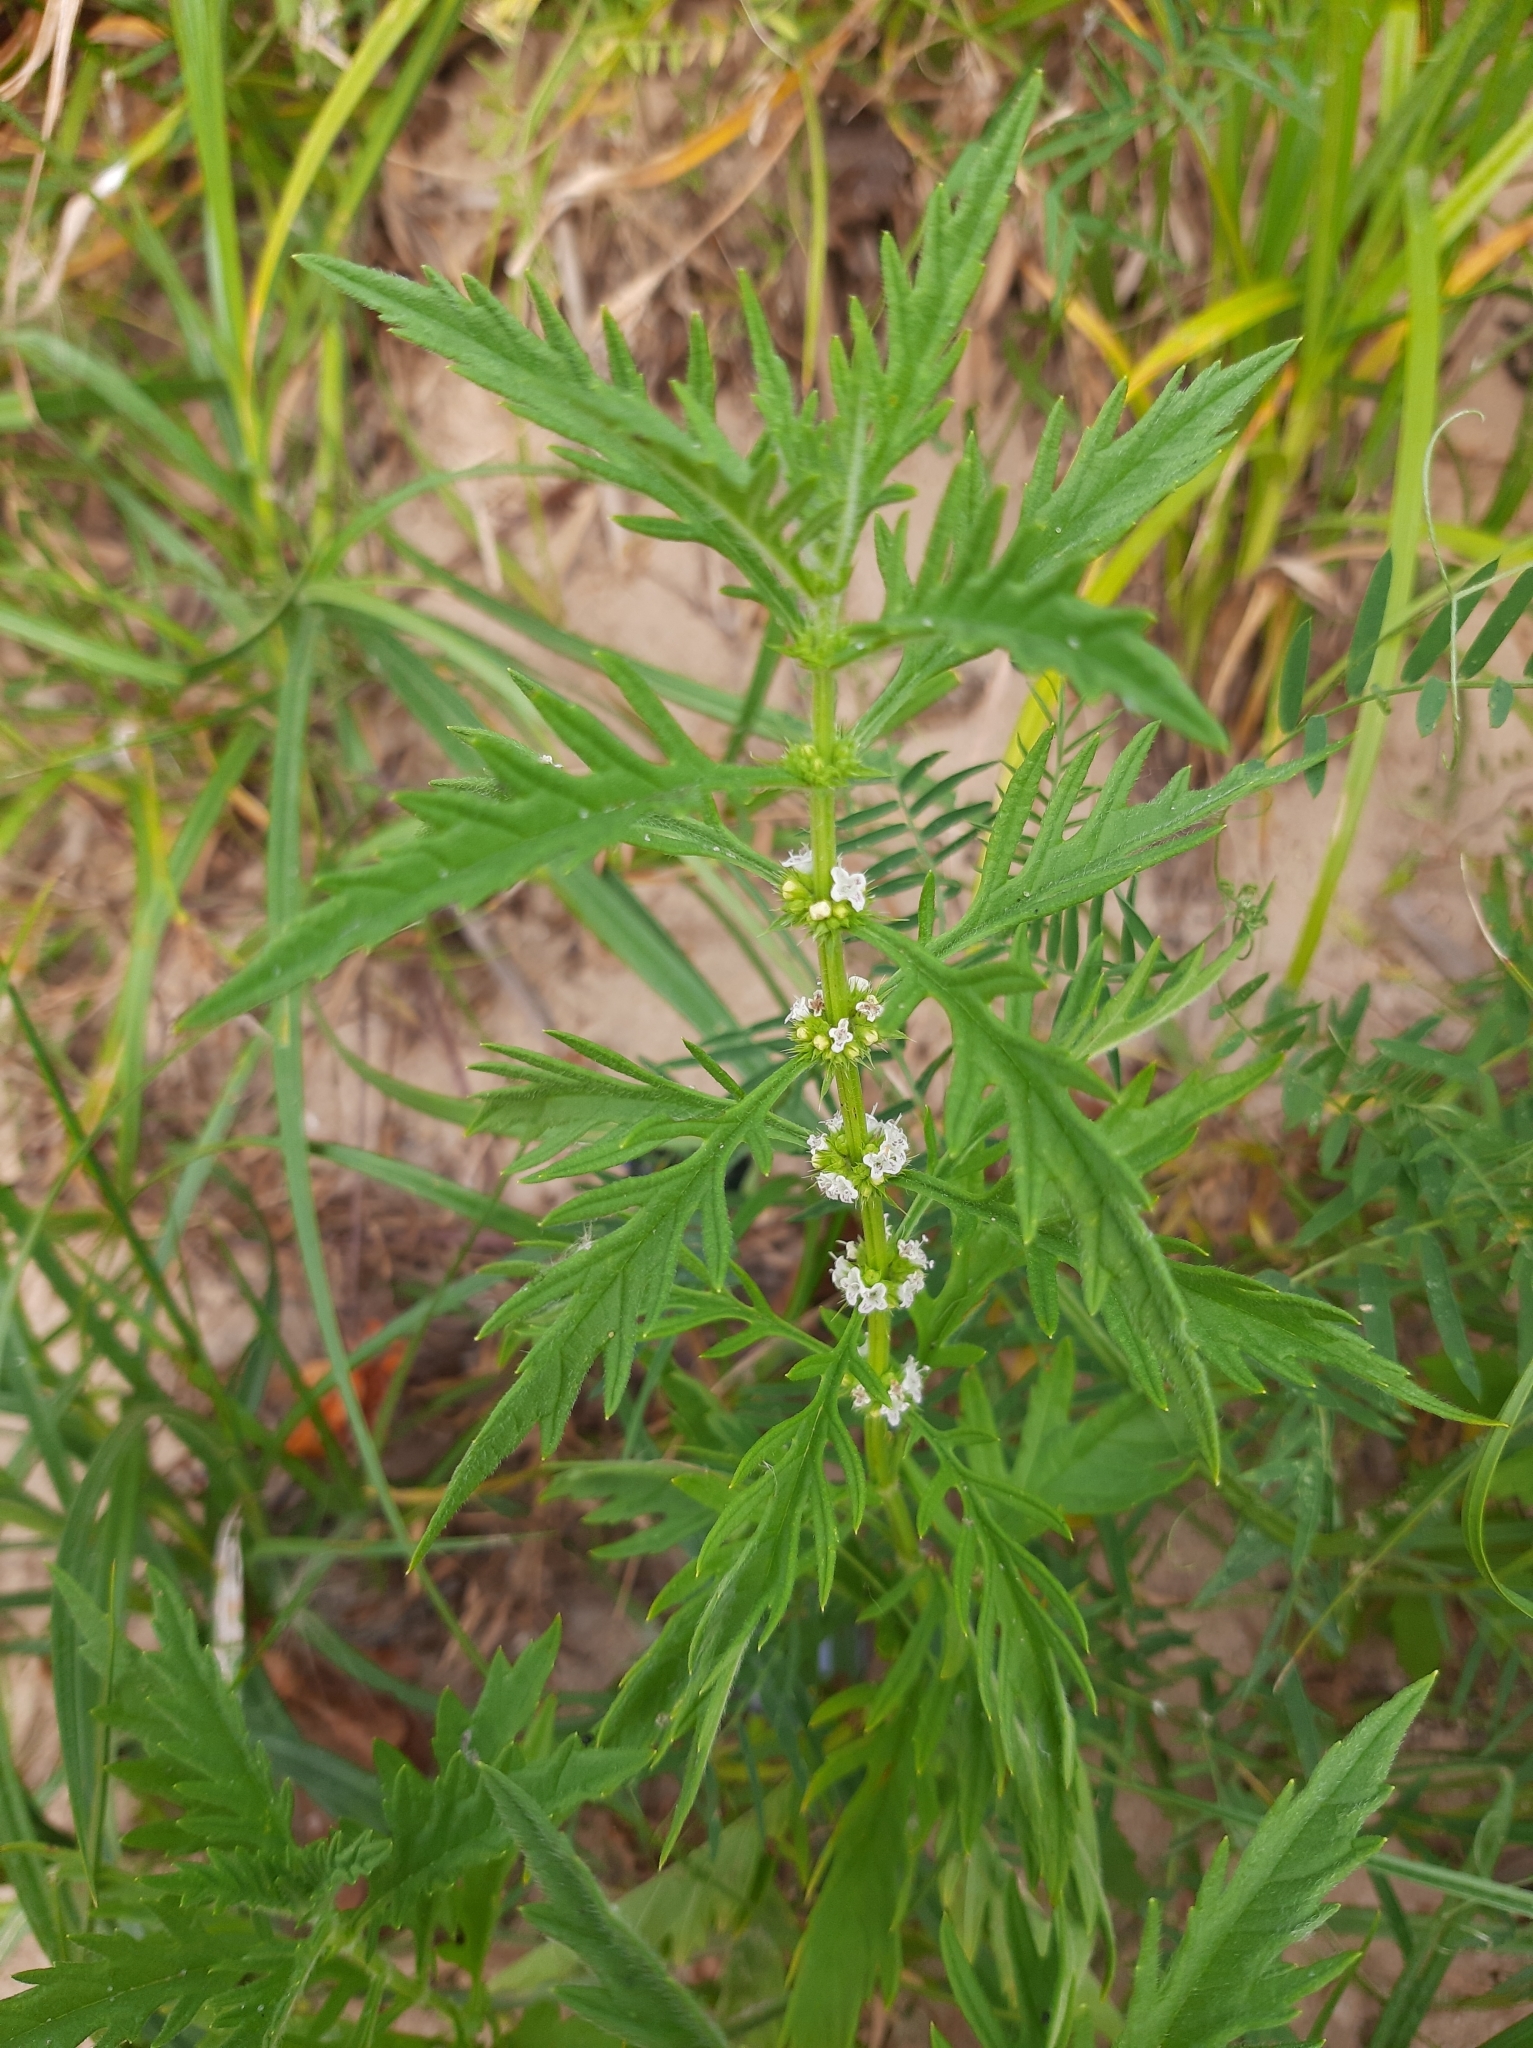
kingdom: Plantae
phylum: Tracheophyta
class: Magnoliopsida
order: Lamiales
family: Lamiaceae
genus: Lycopus
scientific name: Lycopus exaltatus
